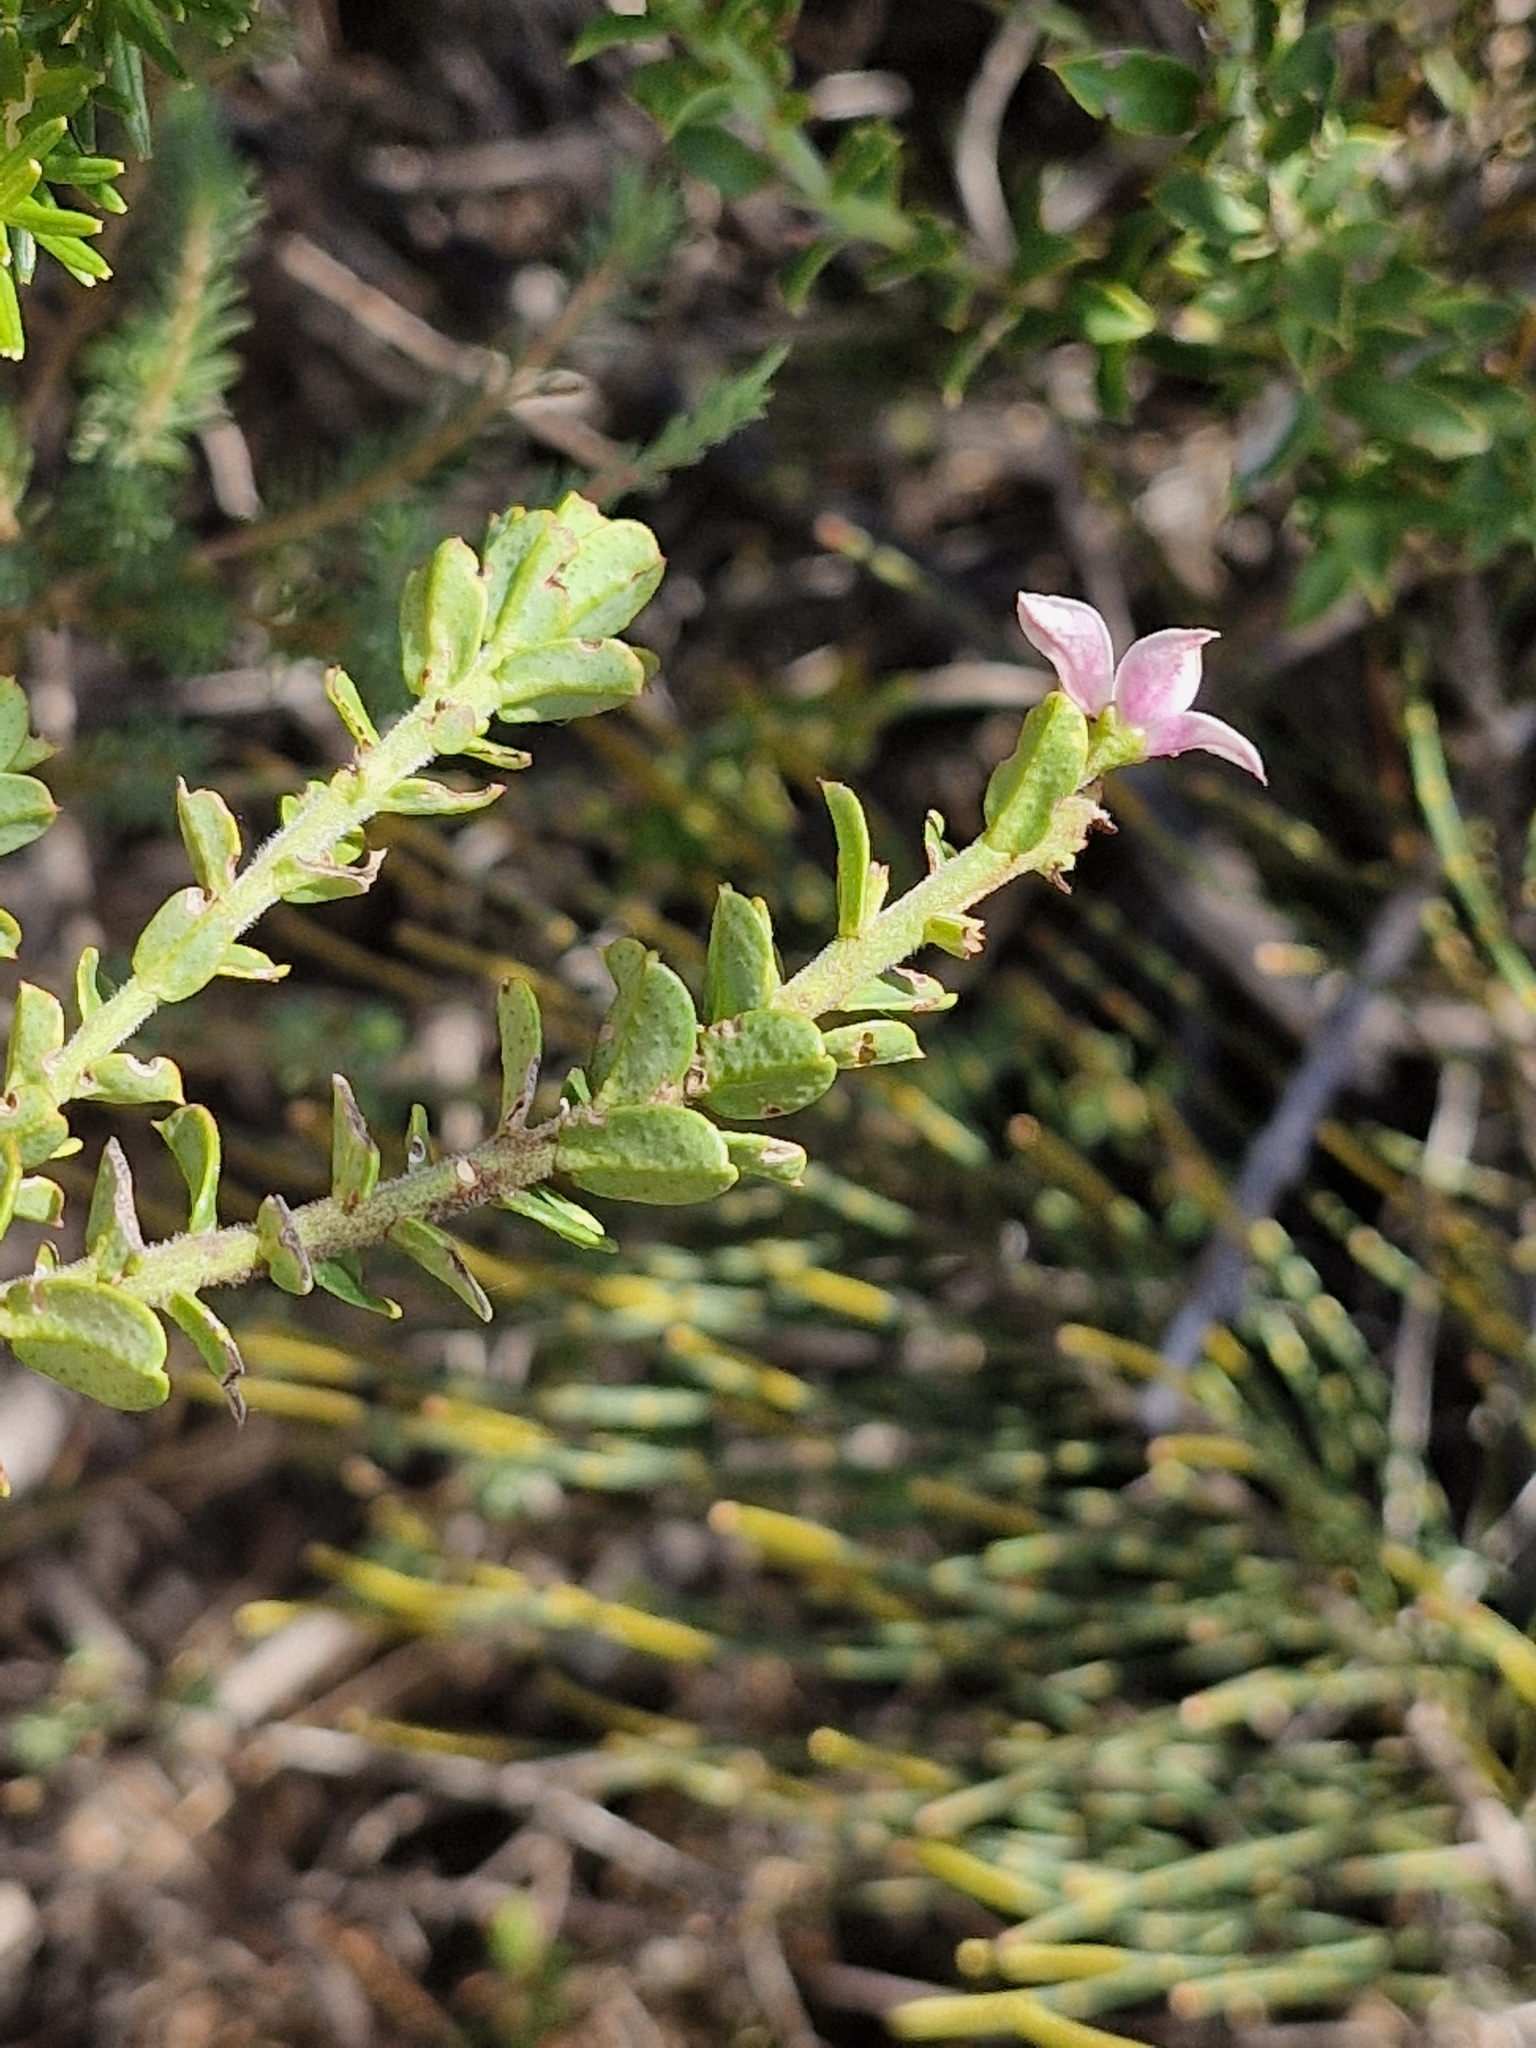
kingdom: Plantae
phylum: Tracheophyta
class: Magnoliopsida
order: Sapindales
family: Rutaceae
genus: Philotheca
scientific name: Philotheca buxifolia
